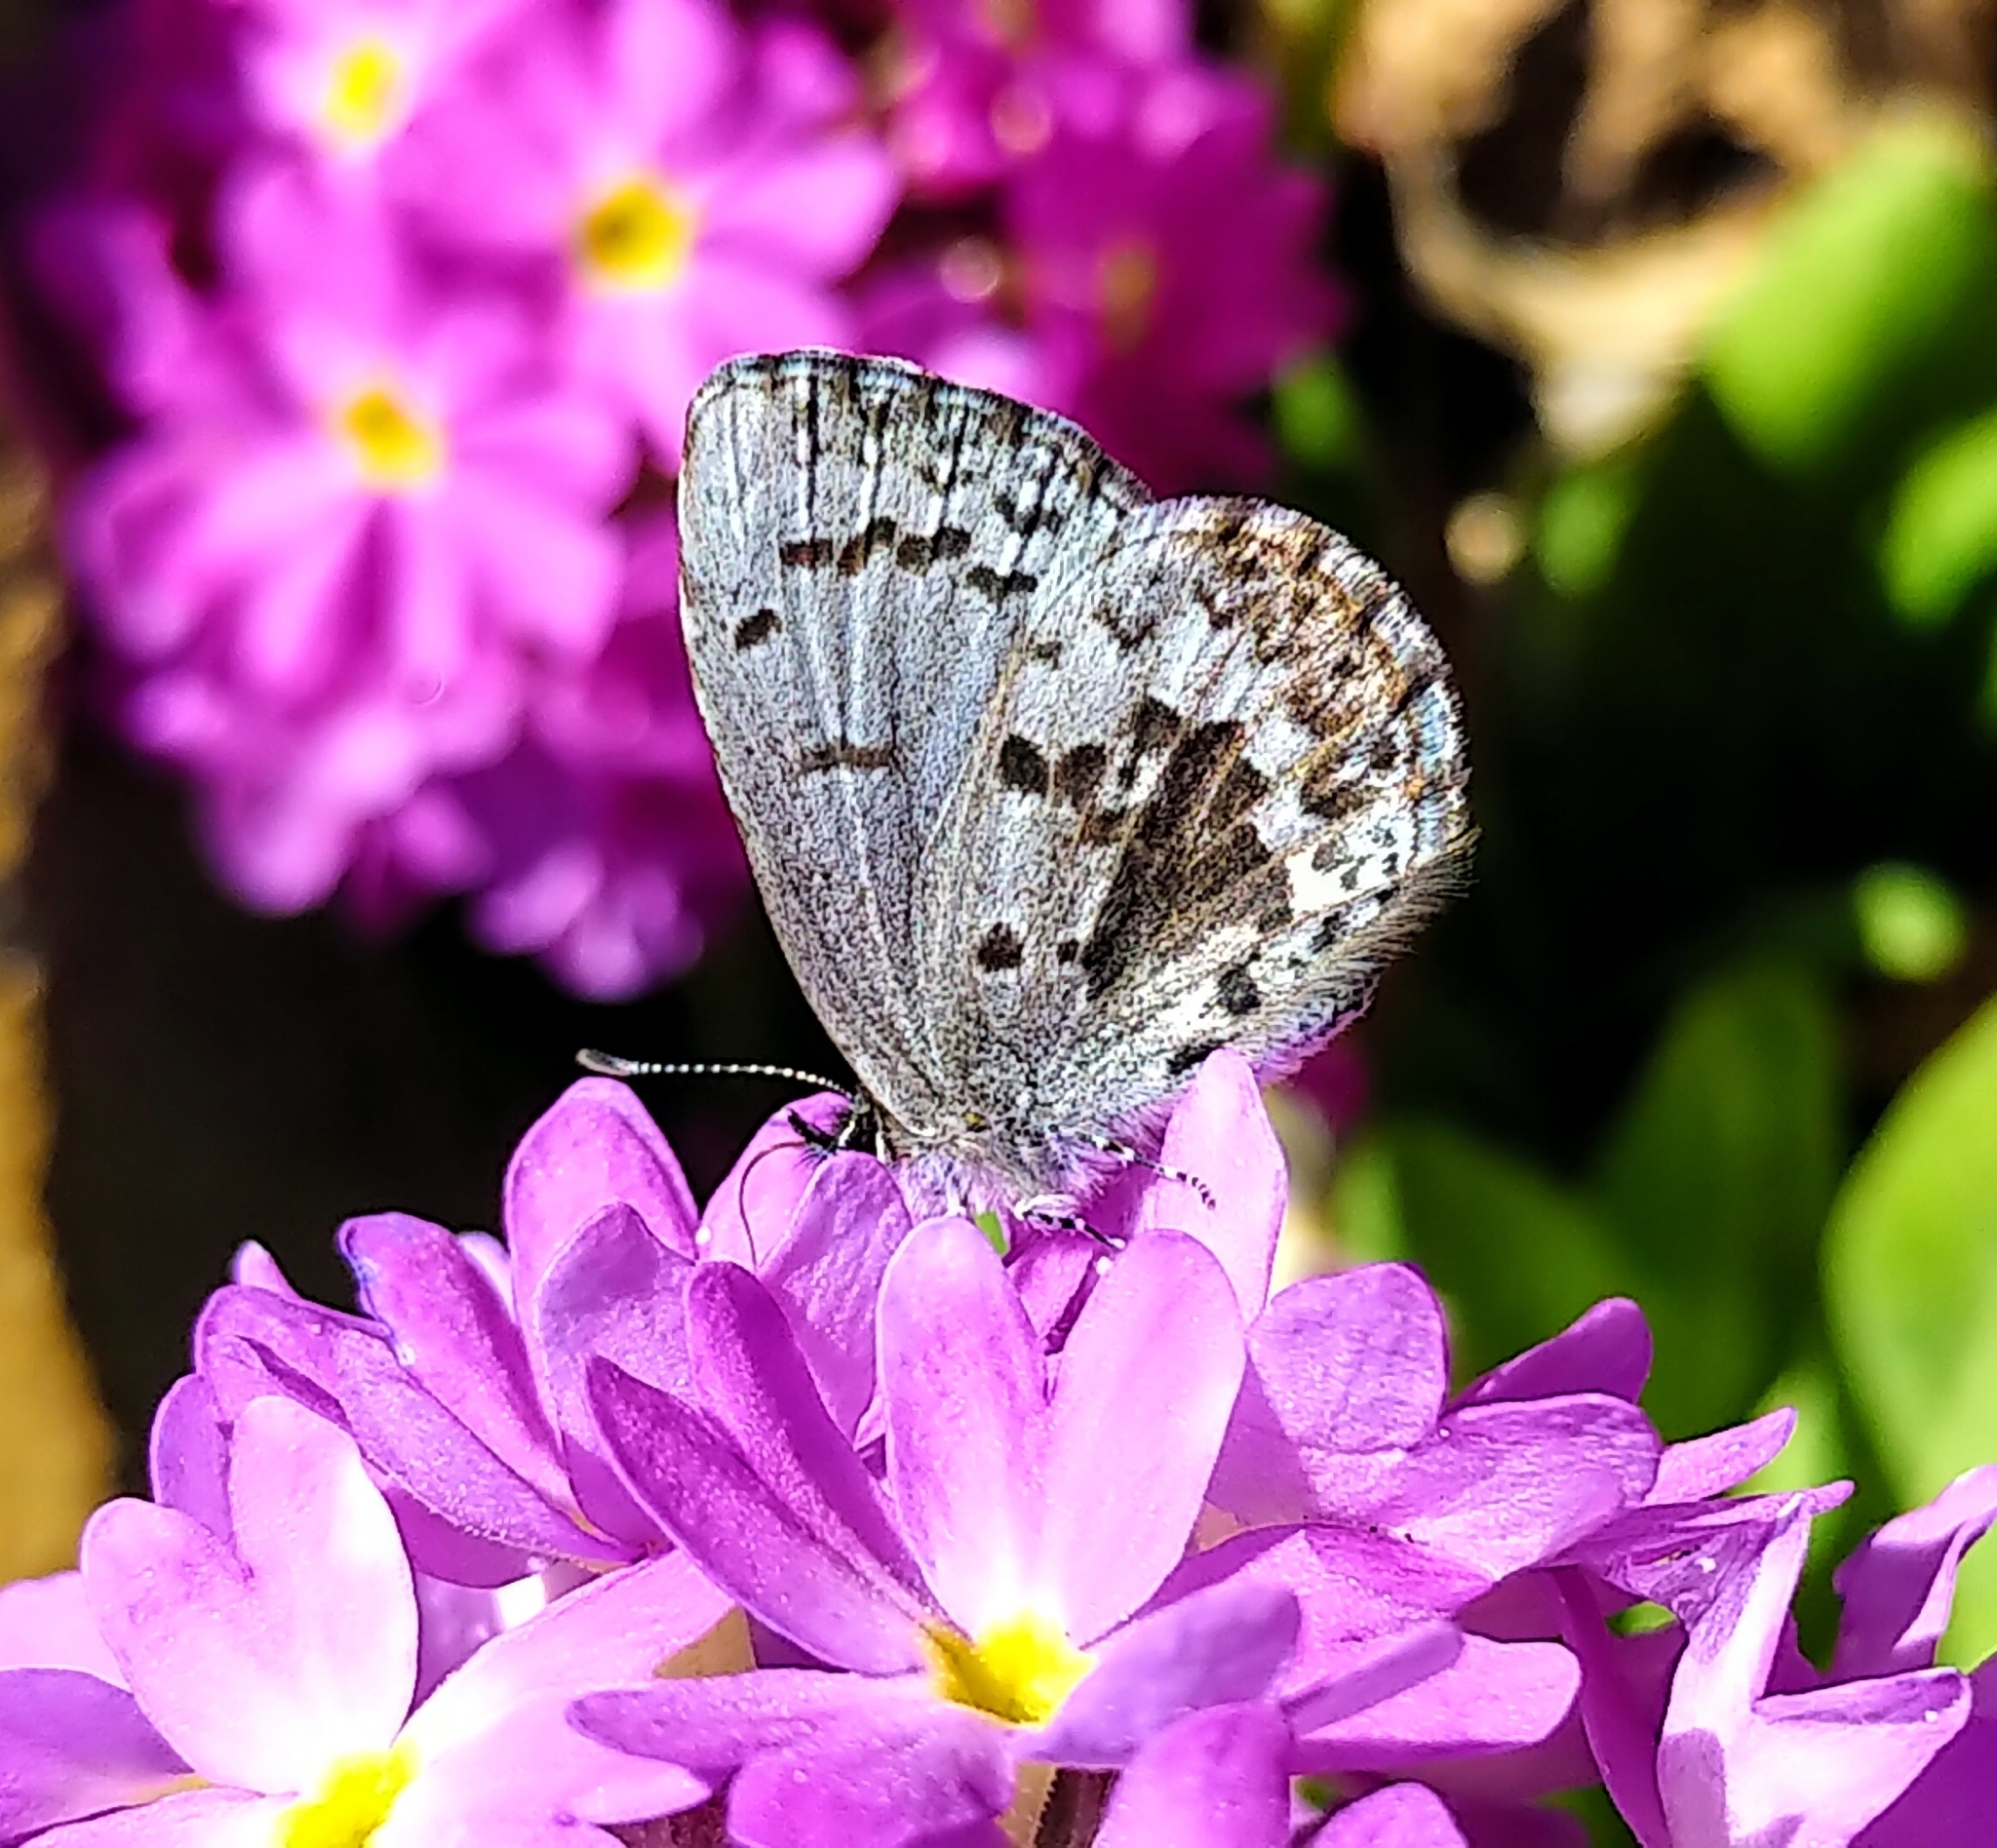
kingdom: Animalia
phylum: Arthropoda
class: Insecta
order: Lepidoptera
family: Lycaenidae
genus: Celastrina
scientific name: Celastrina lucia
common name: Lucia azure
